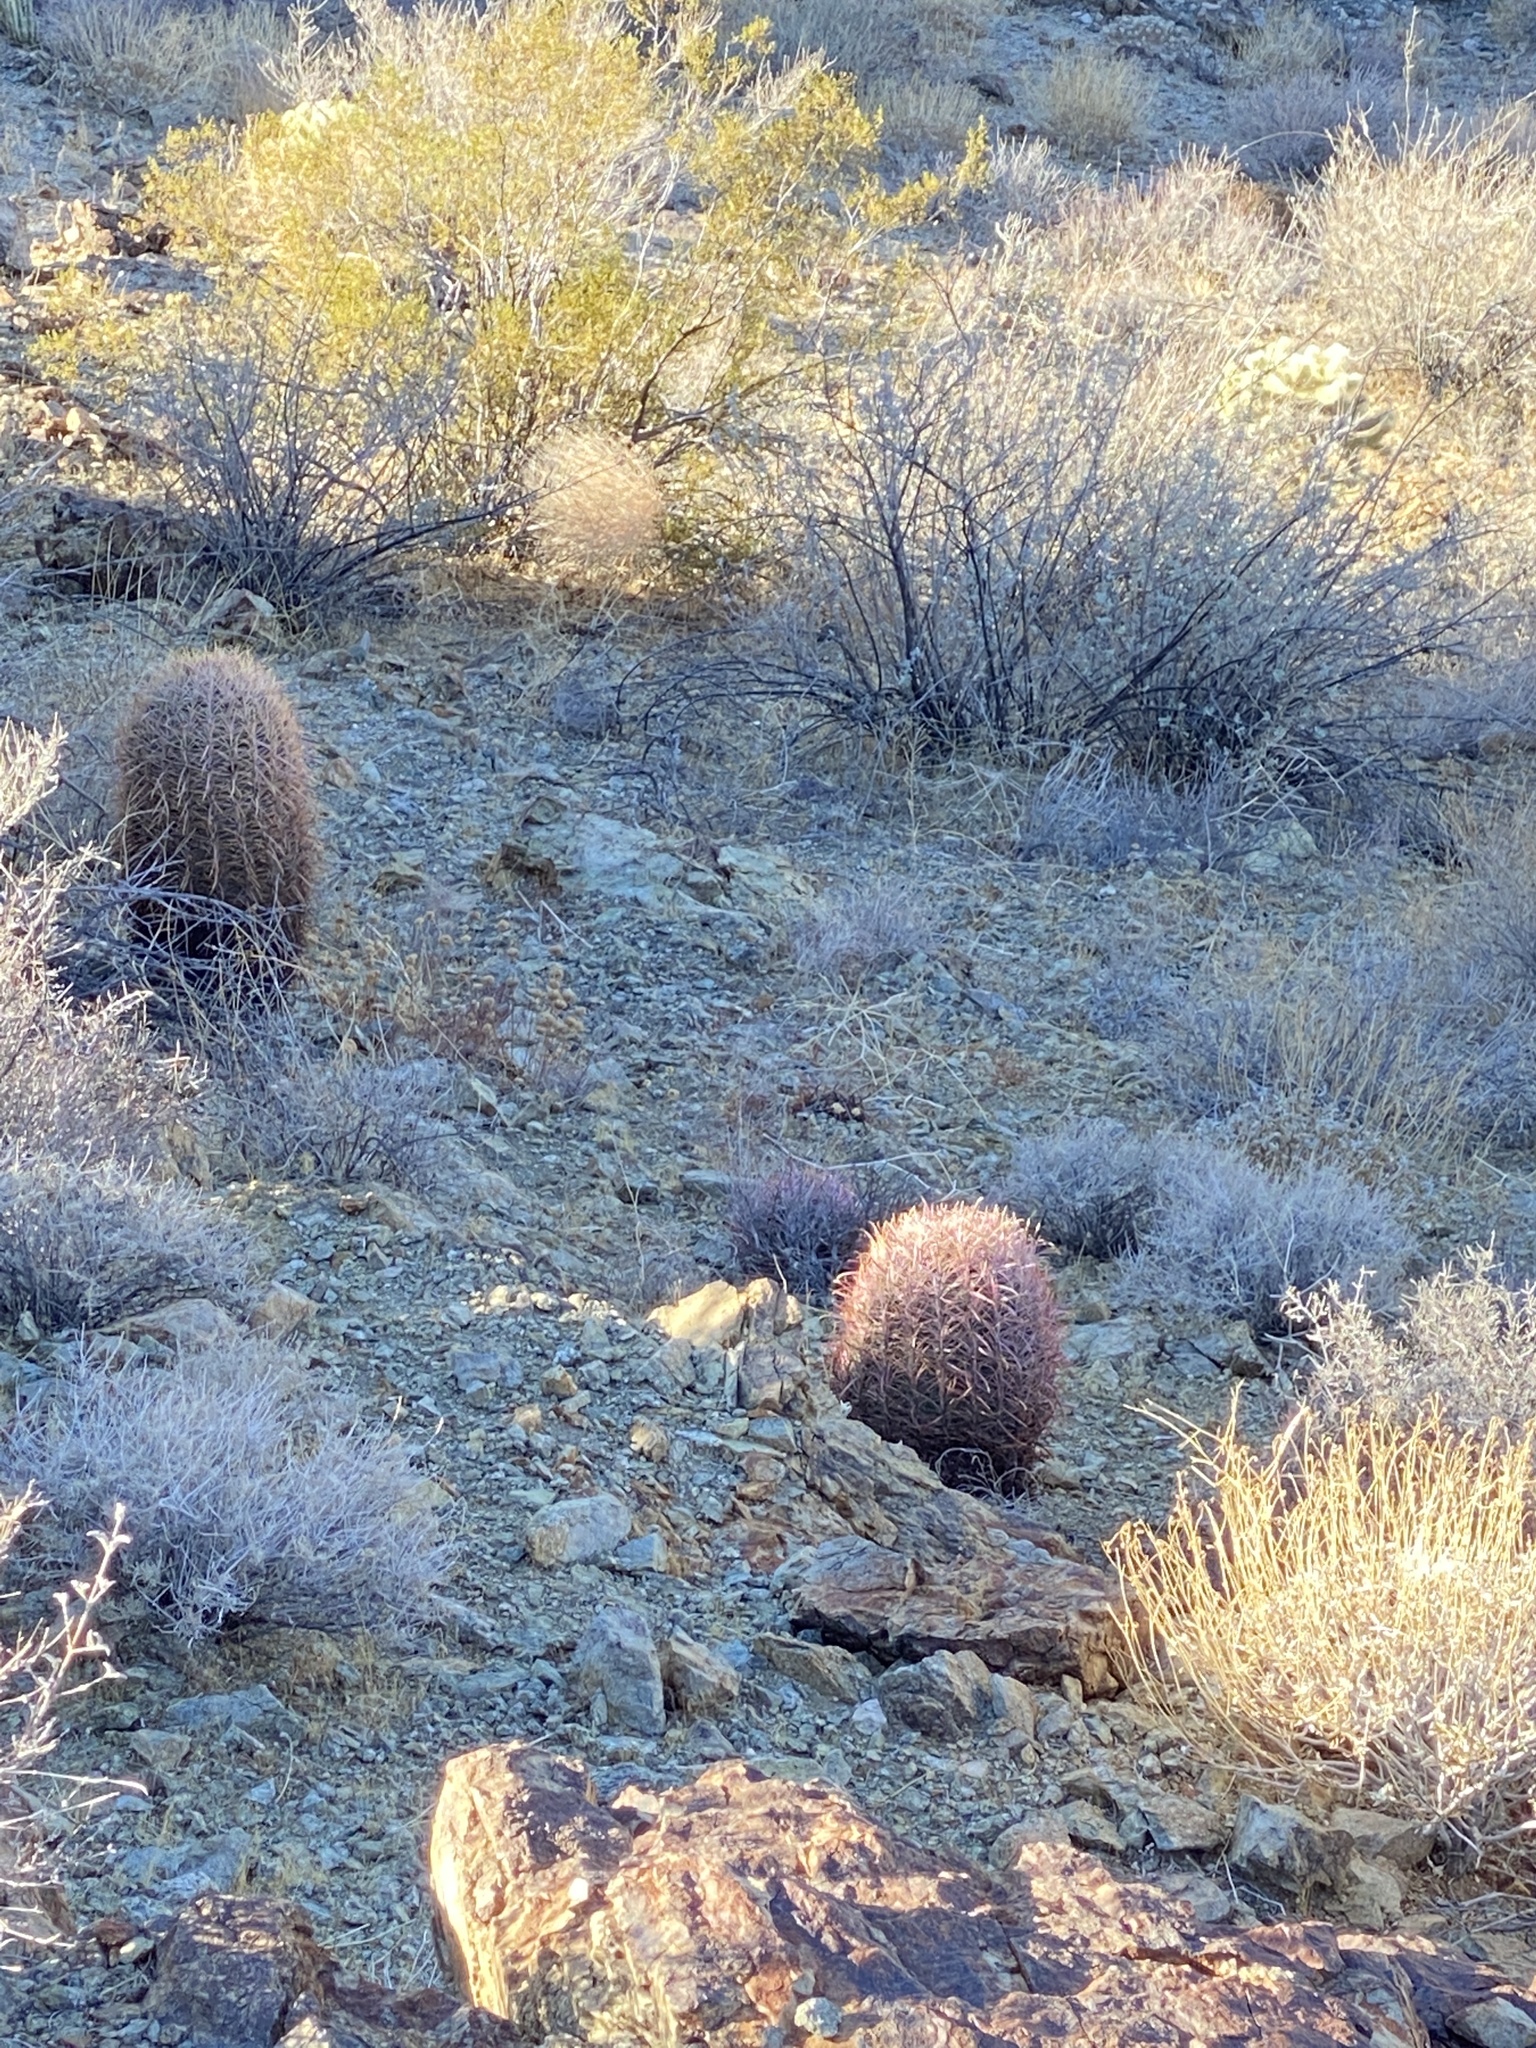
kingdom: Plantae
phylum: Tracheophyta
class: Magnoliopsida
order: Caryophyllales
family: Cactaceae
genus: Ferocactus
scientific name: Ferocactus cylindraceus
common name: California barrel cactus
